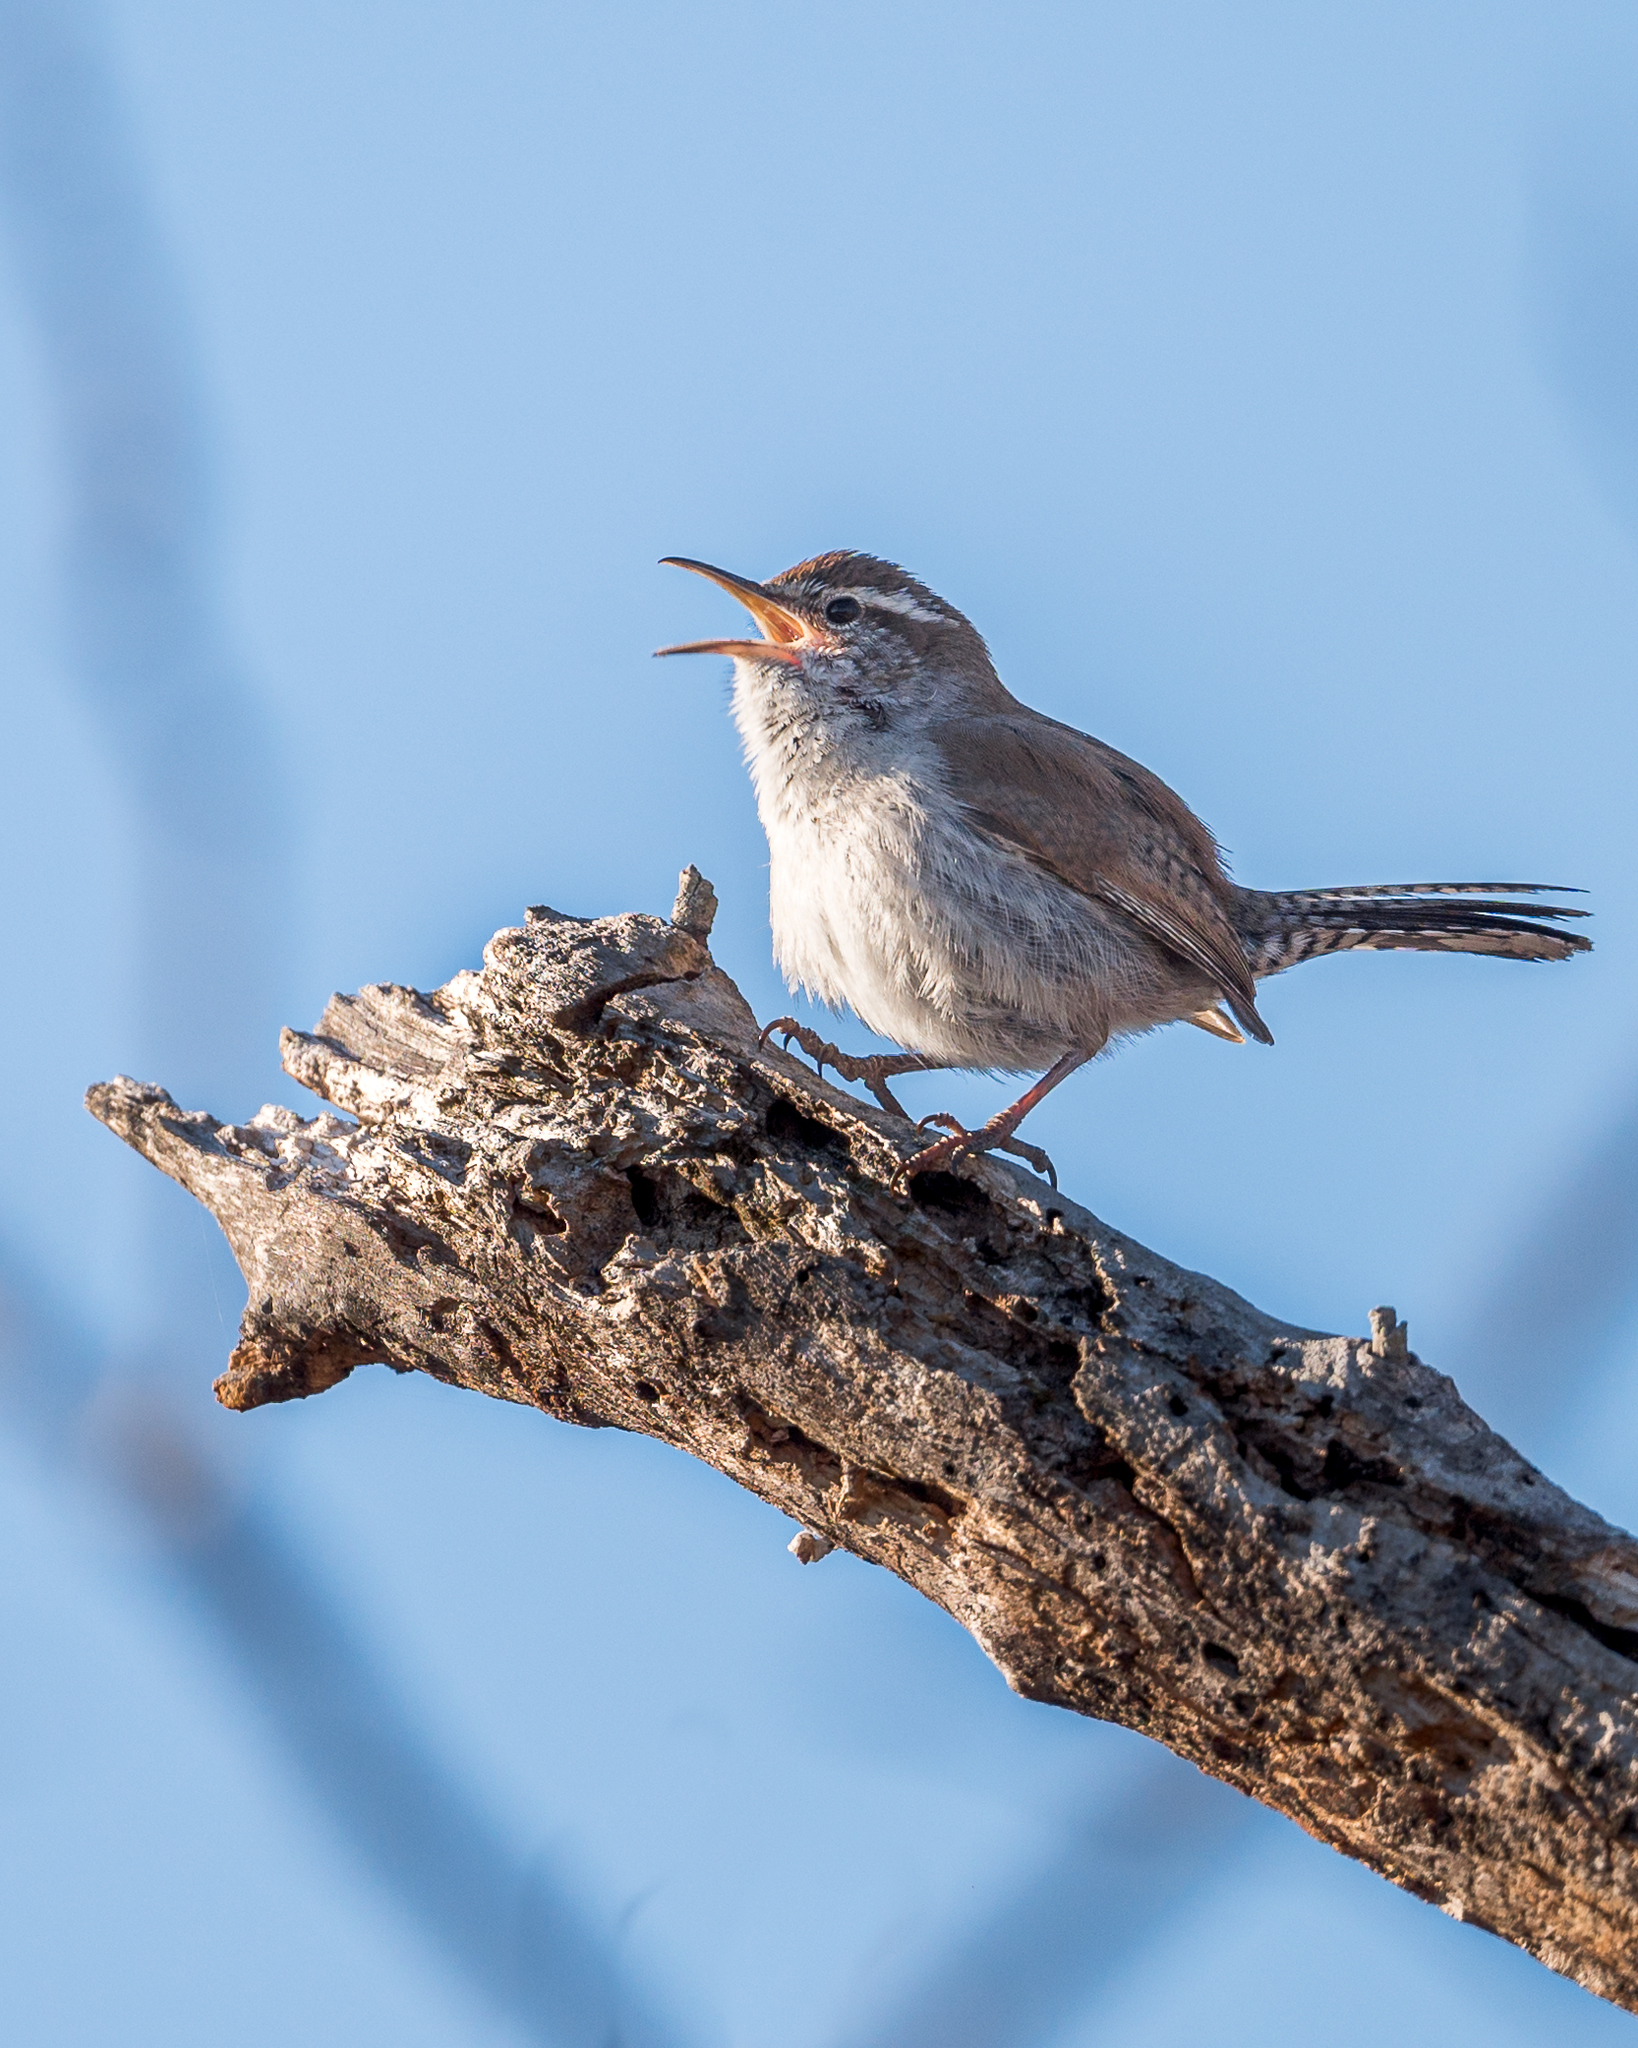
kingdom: Animalia
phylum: Chordata
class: Aves
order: Passeriformes
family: Troglodytidae
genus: Thryomanes
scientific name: Thryomanes bewickii
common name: Bewick's wren
